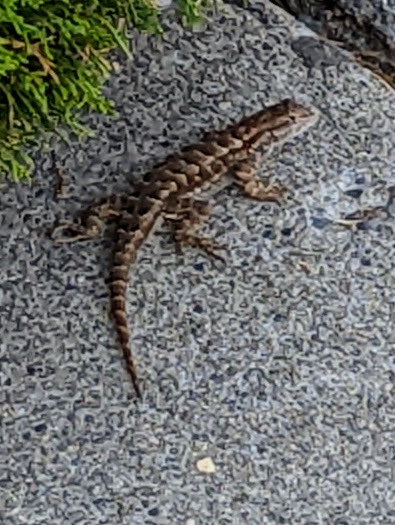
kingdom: Animalia
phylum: Chordata
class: Squamata
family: Phrynosomatidae
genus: Sceloporus
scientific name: Sceloporus occidentalis
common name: Western fence lizard
